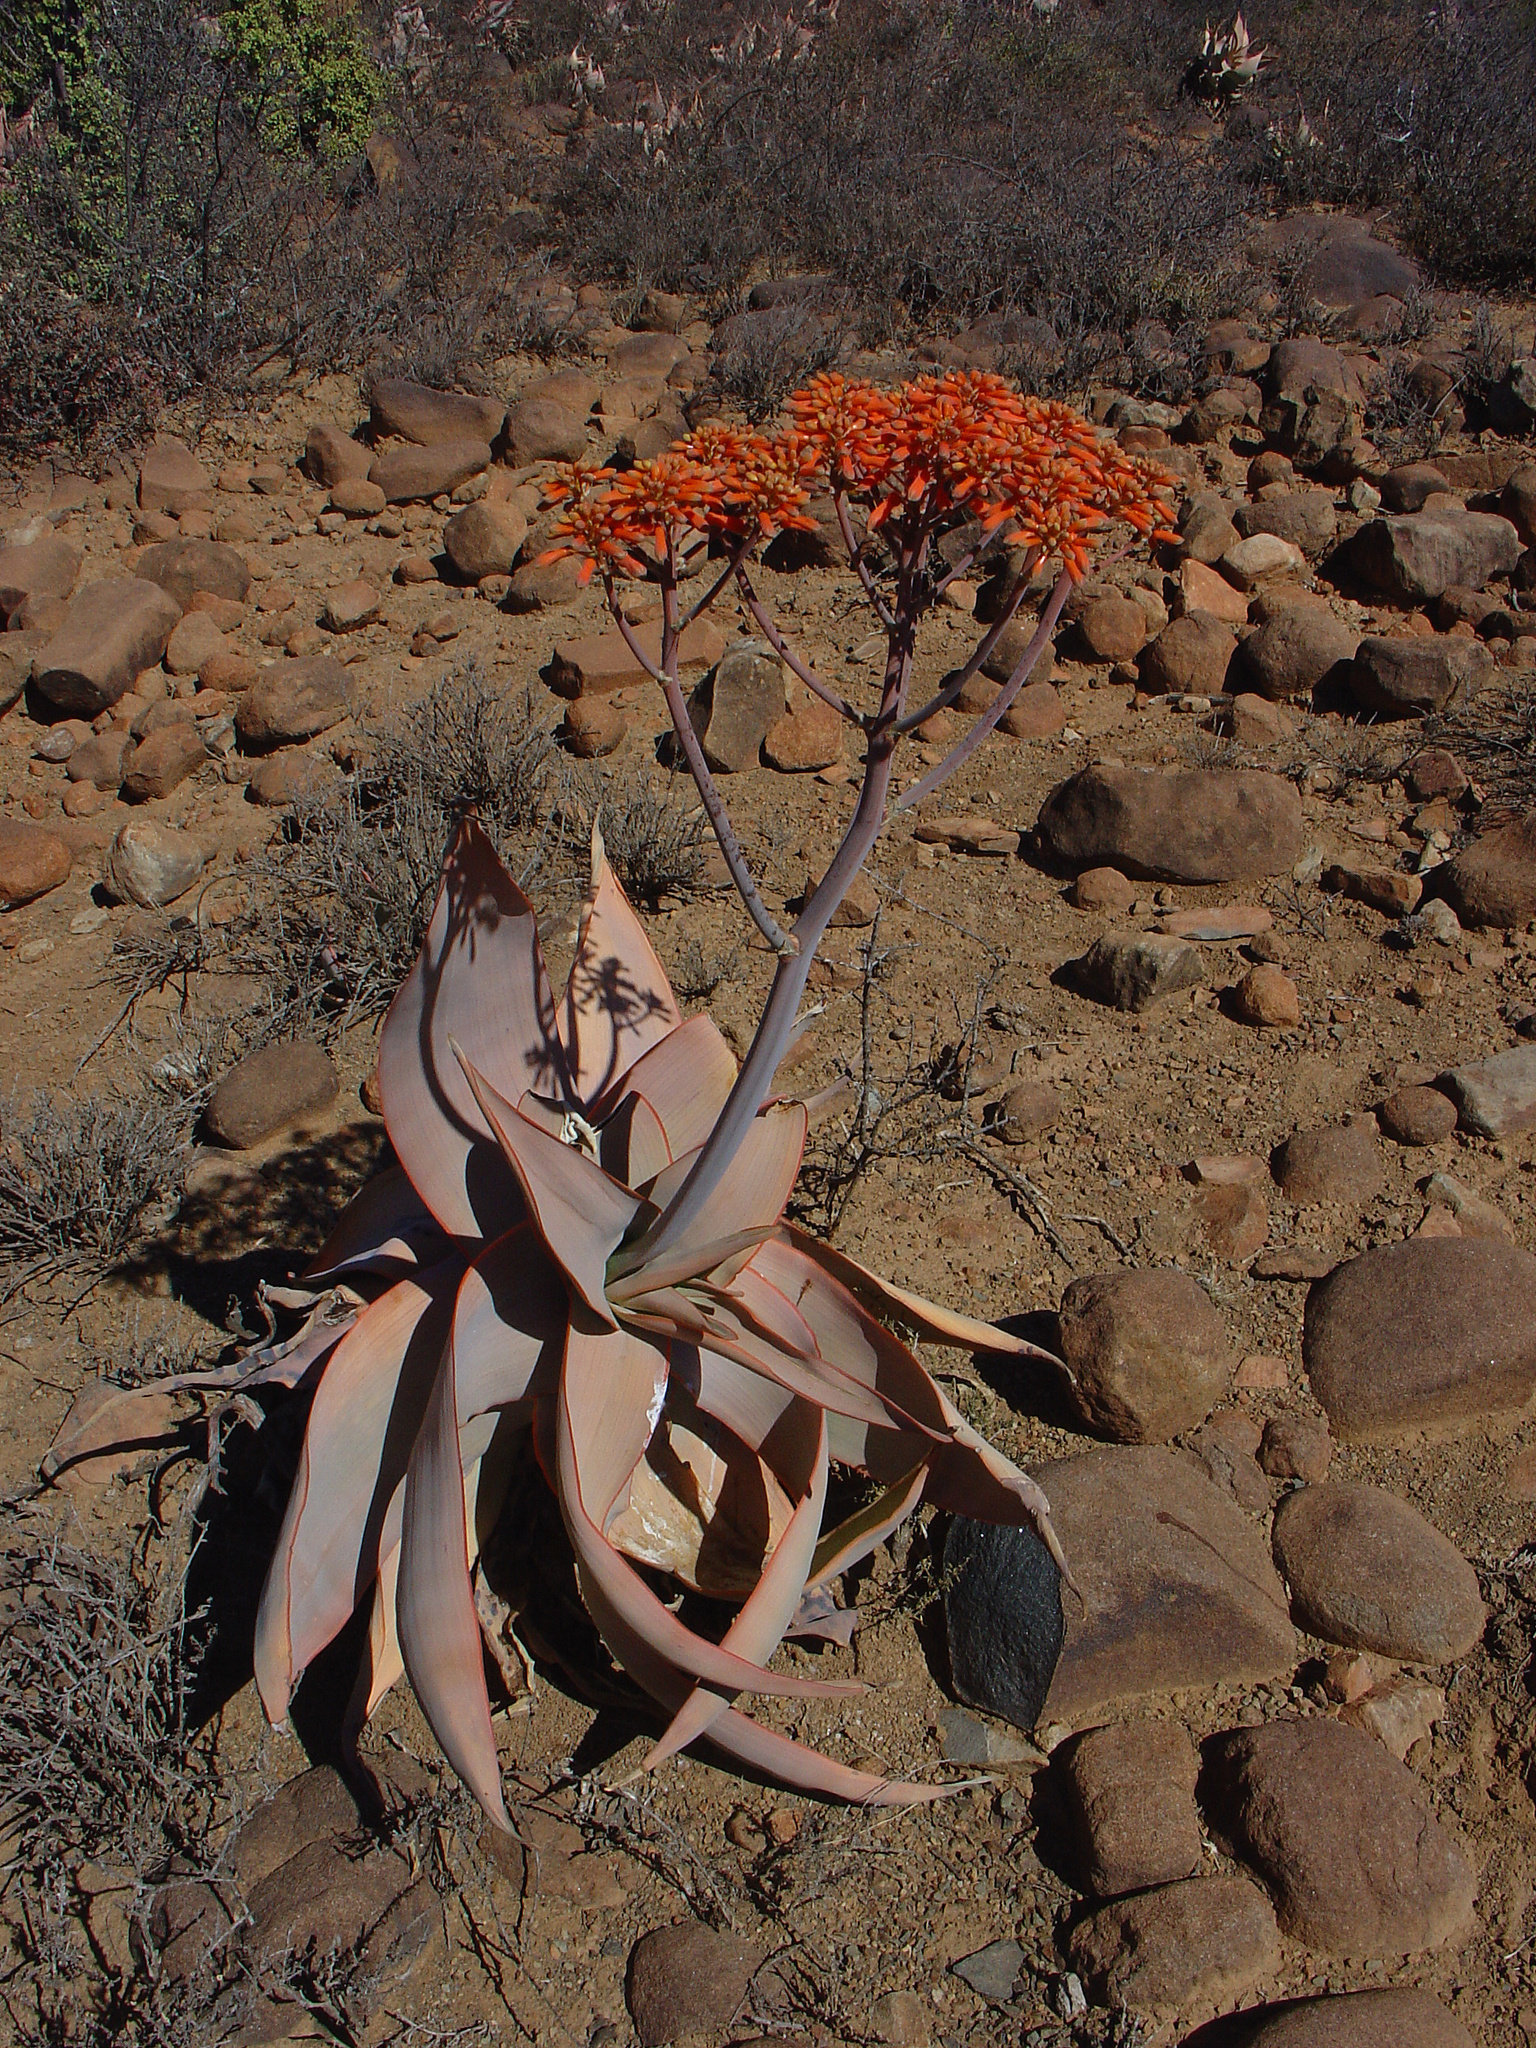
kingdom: Plantae
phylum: Tracheophyta
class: Liliopsida
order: Asparagales
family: Asphodelaceae
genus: Aloe
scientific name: Aloe striata
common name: Coral aloe
